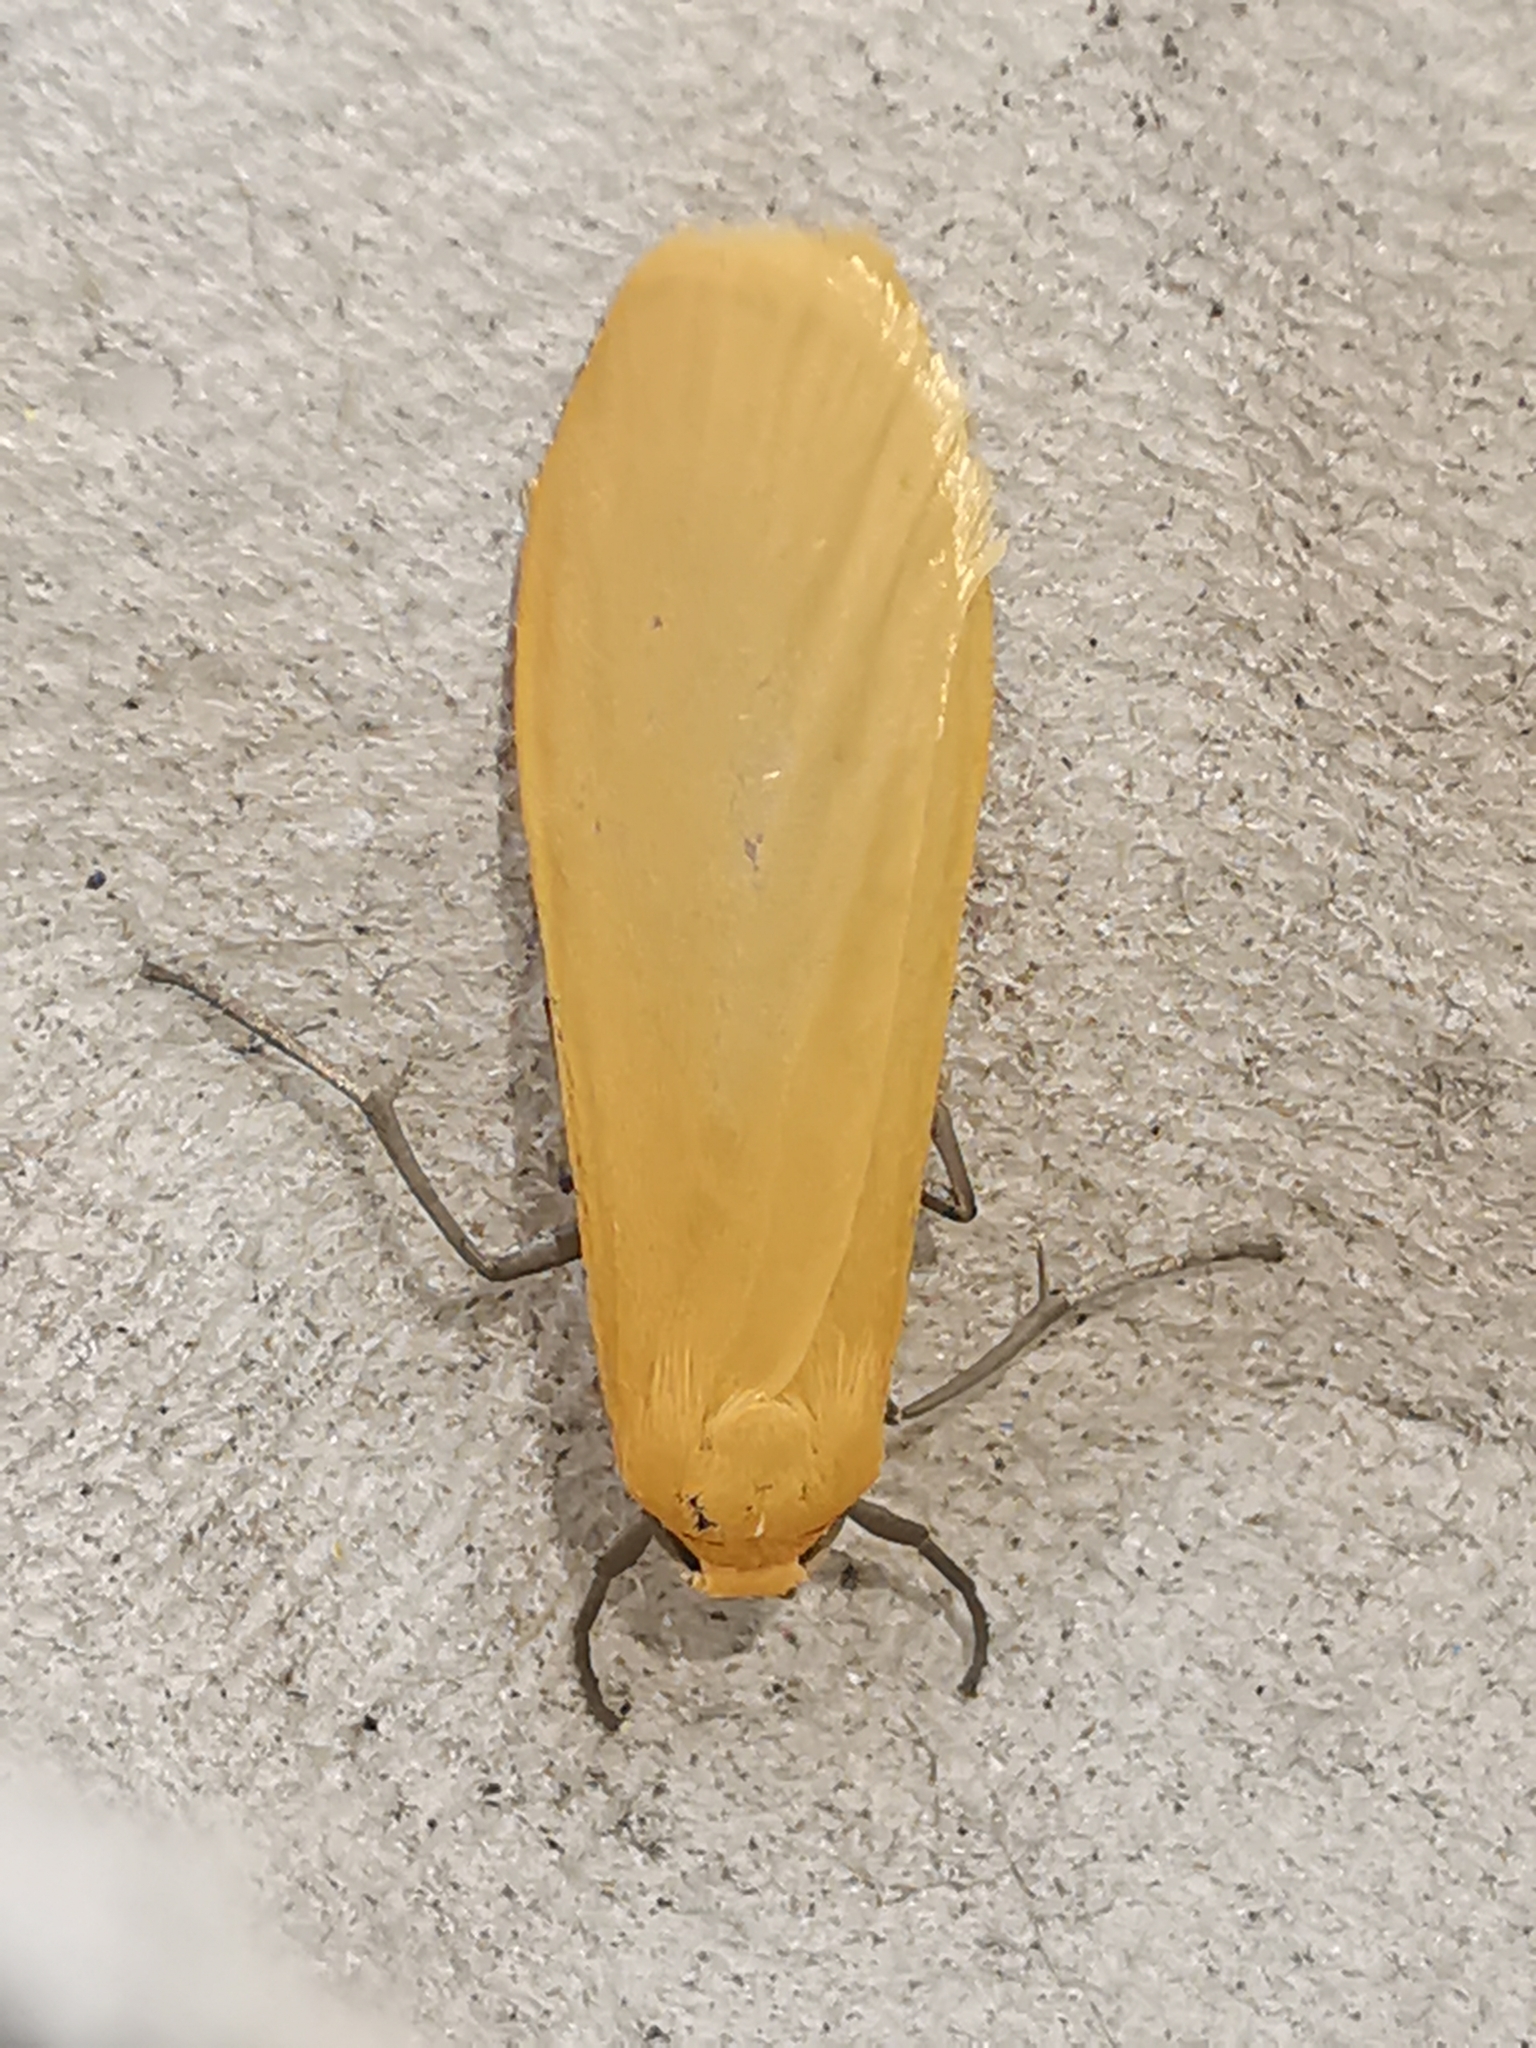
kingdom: Animalia
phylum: Arthropoda
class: Insecta
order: Lepidoptera
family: Erebidae
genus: Wittia
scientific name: Wittia sororcula
